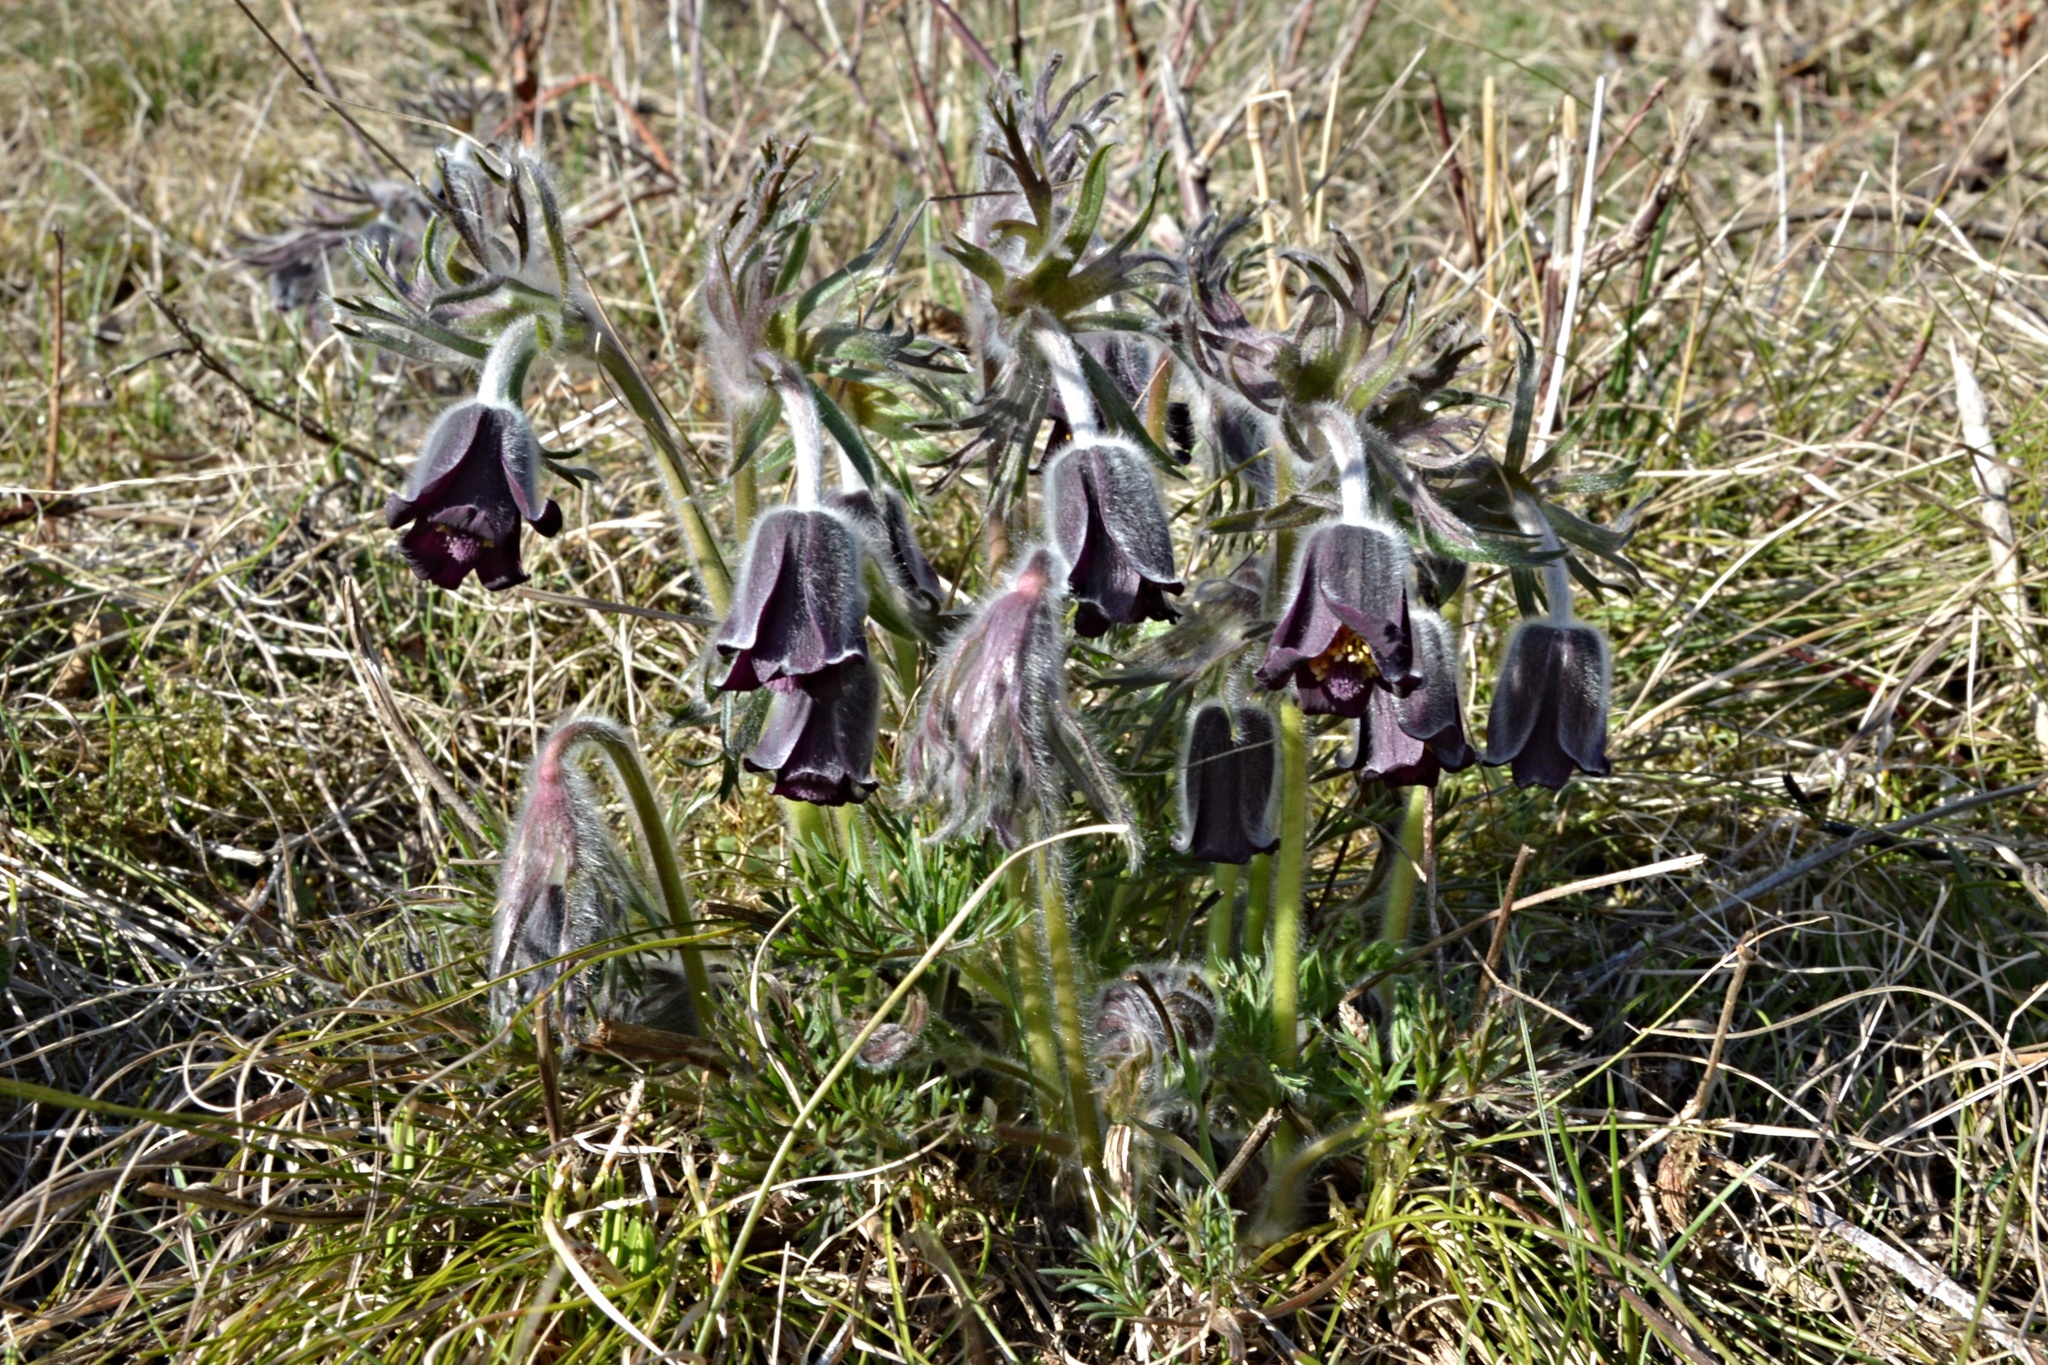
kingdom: Plantae
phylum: Tracheophyta
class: Magnoliopsida
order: Ranunculales
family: Ranunculaceae
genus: Pulsatilla
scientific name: Pulsatilla pratensis
